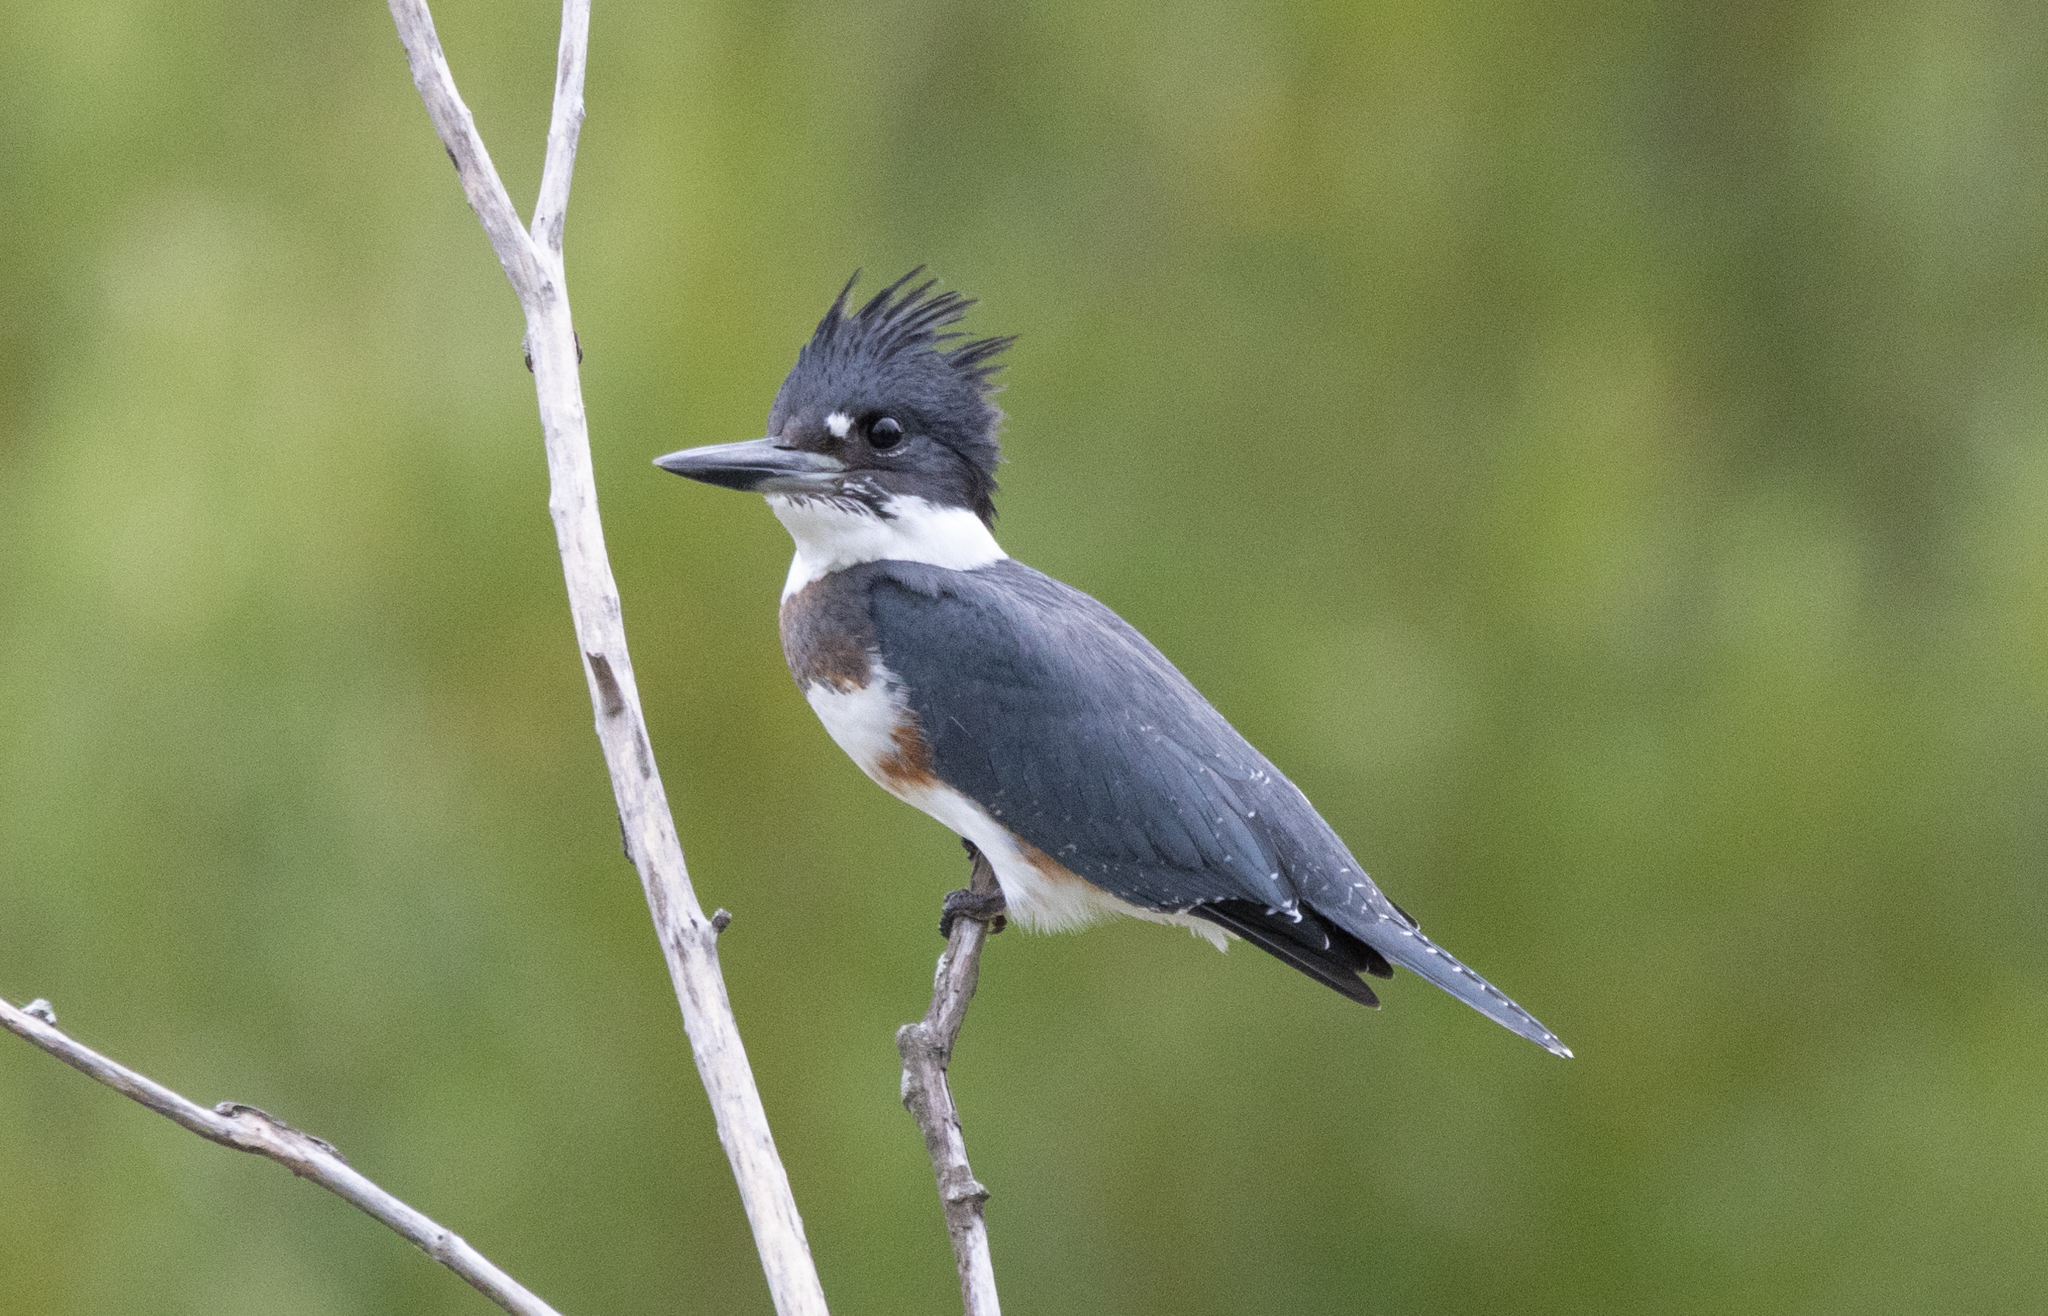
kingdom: Animalia
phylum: Chordata
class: Aves
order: Coraciiformes
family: Alcedinidae
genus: Megaceryle
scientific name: Megaceryle alcyon
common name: Belted kingfisher
